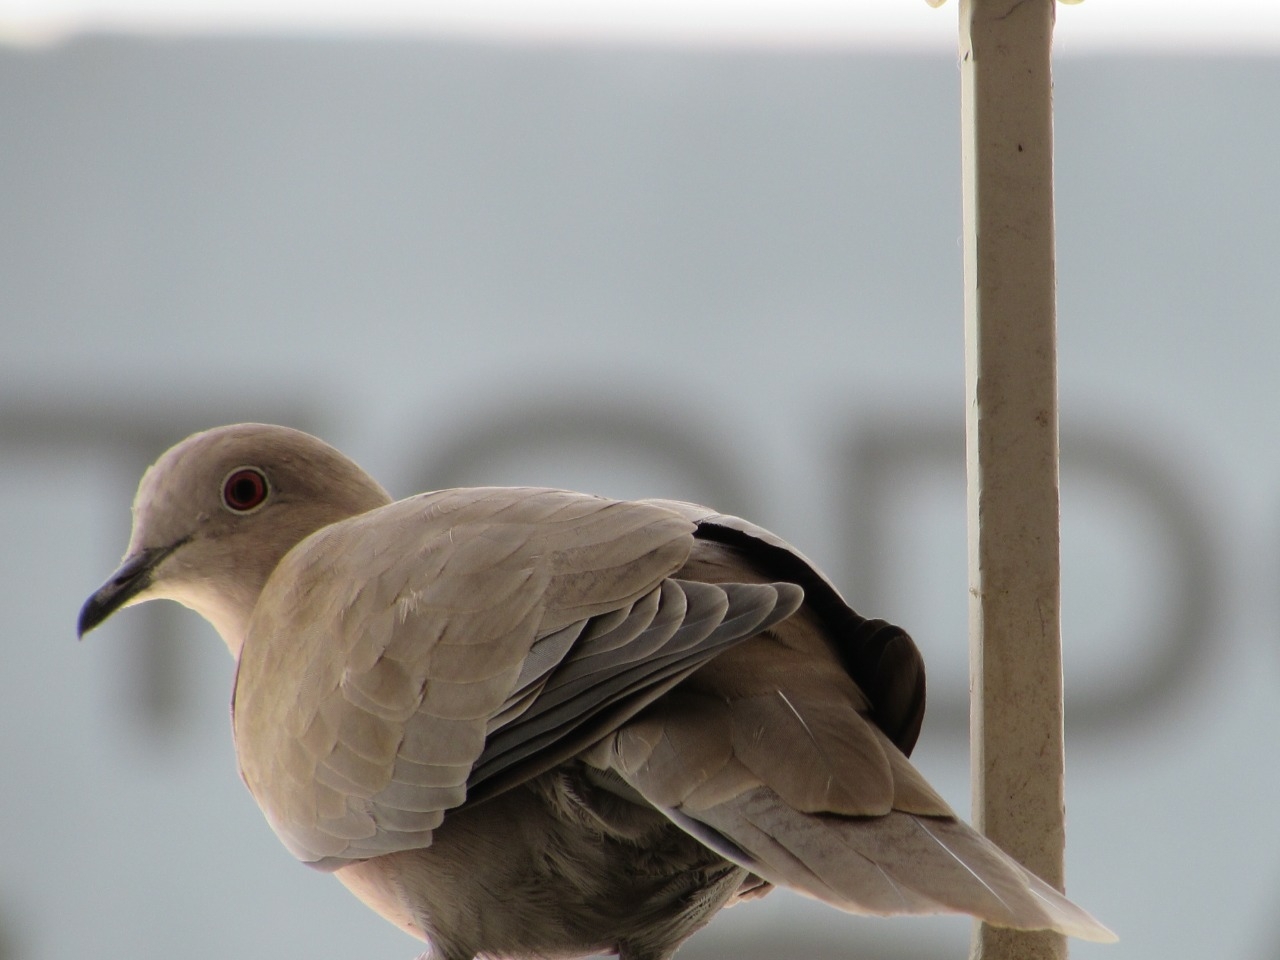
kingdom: Animalia
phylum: Chordata
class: Aves
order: Columbiformes
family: Columbidae
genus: Streptopelia
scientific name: Streptopelia decaocto
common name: Eurasian collared dove
